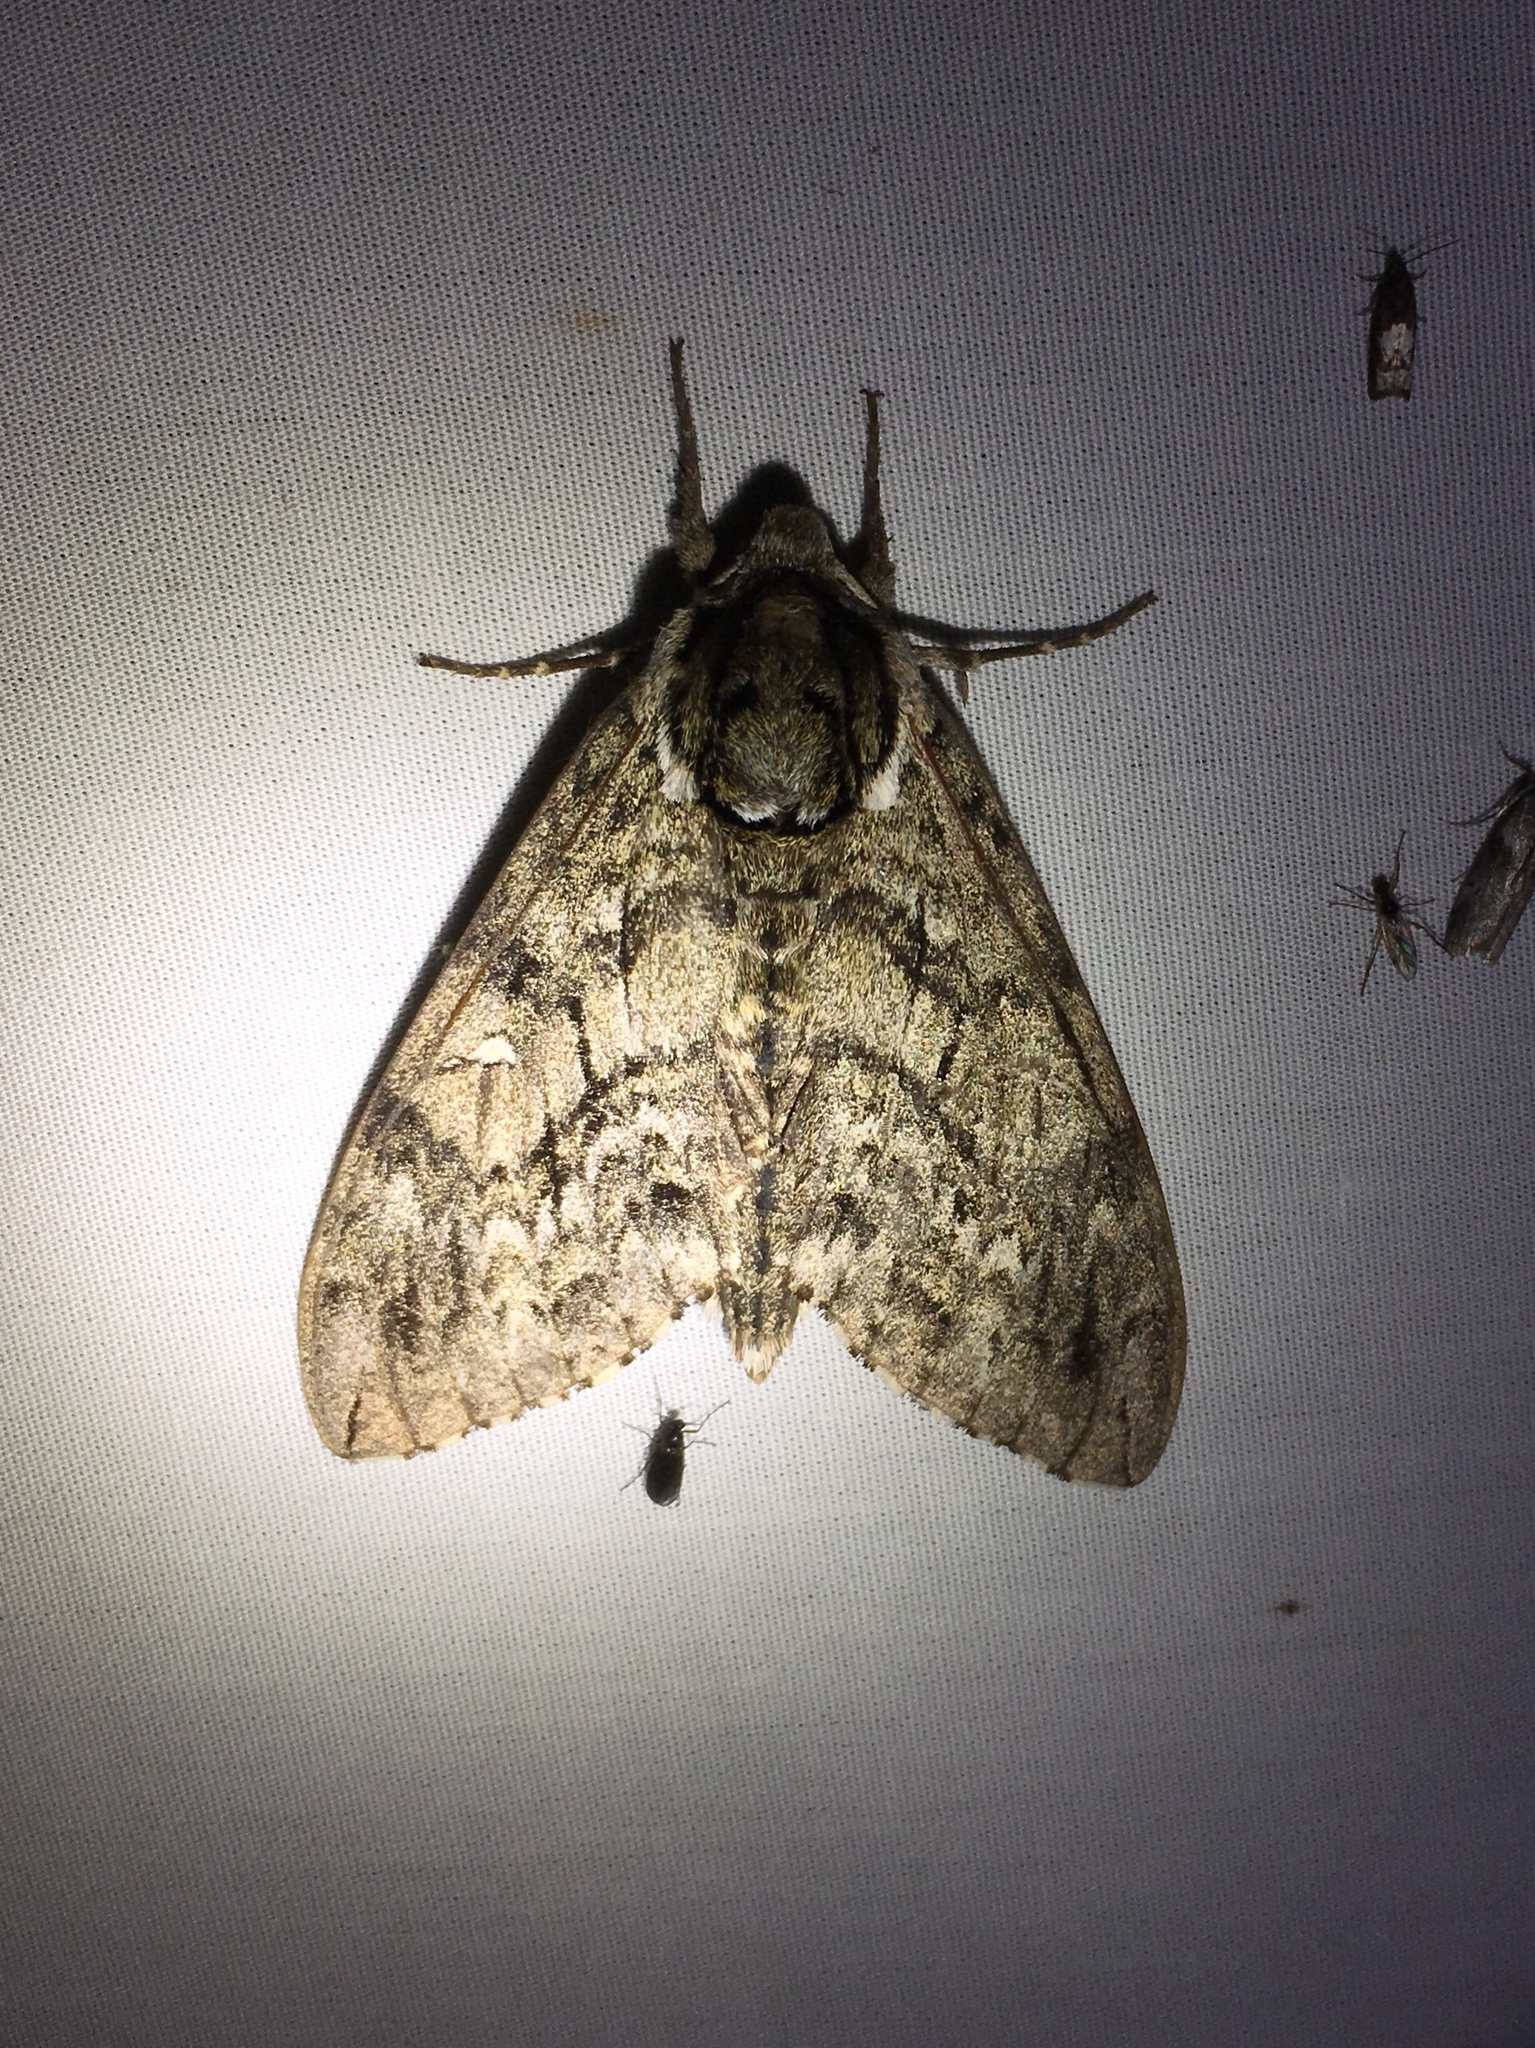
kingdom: Animalia
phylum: Arthropoda
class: Insecta
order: Lepidoptera
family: Sphingidae
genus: Ceratomia
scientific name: Ceratomia undulosa
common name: Waved sphinx
